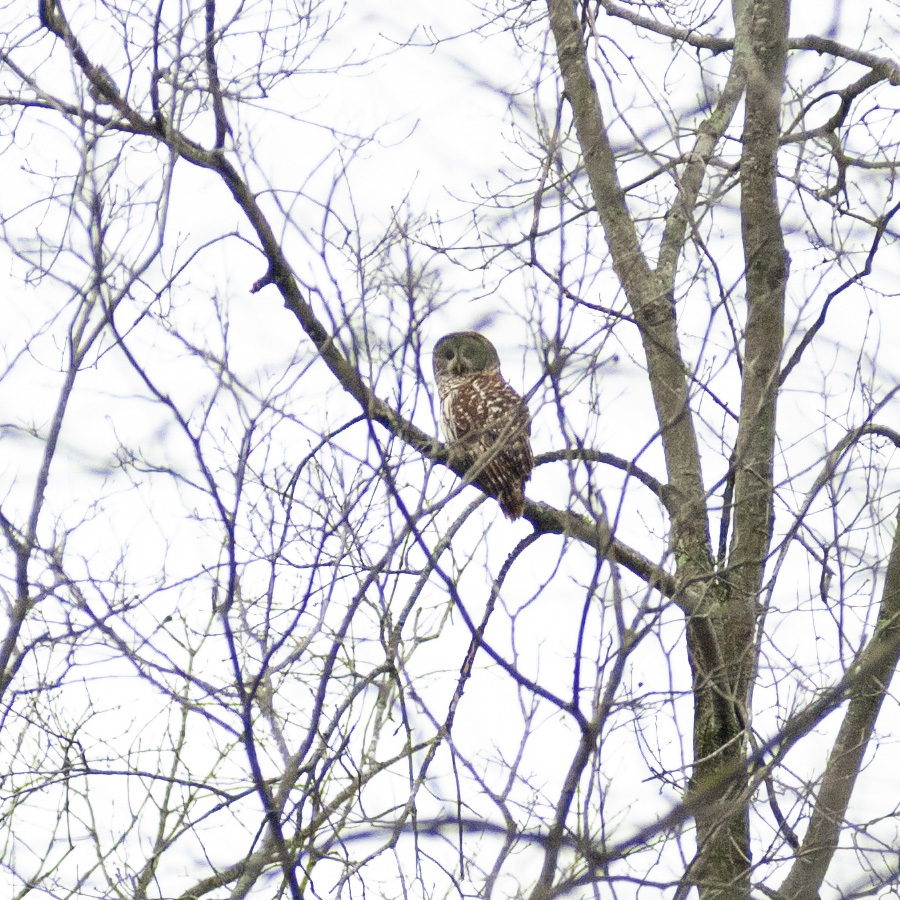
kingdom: Animalia
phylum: Chordata
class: Aves
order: Strigiformes
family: Strigidae
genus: Strix
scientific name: Strix varia
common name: Barred owl
